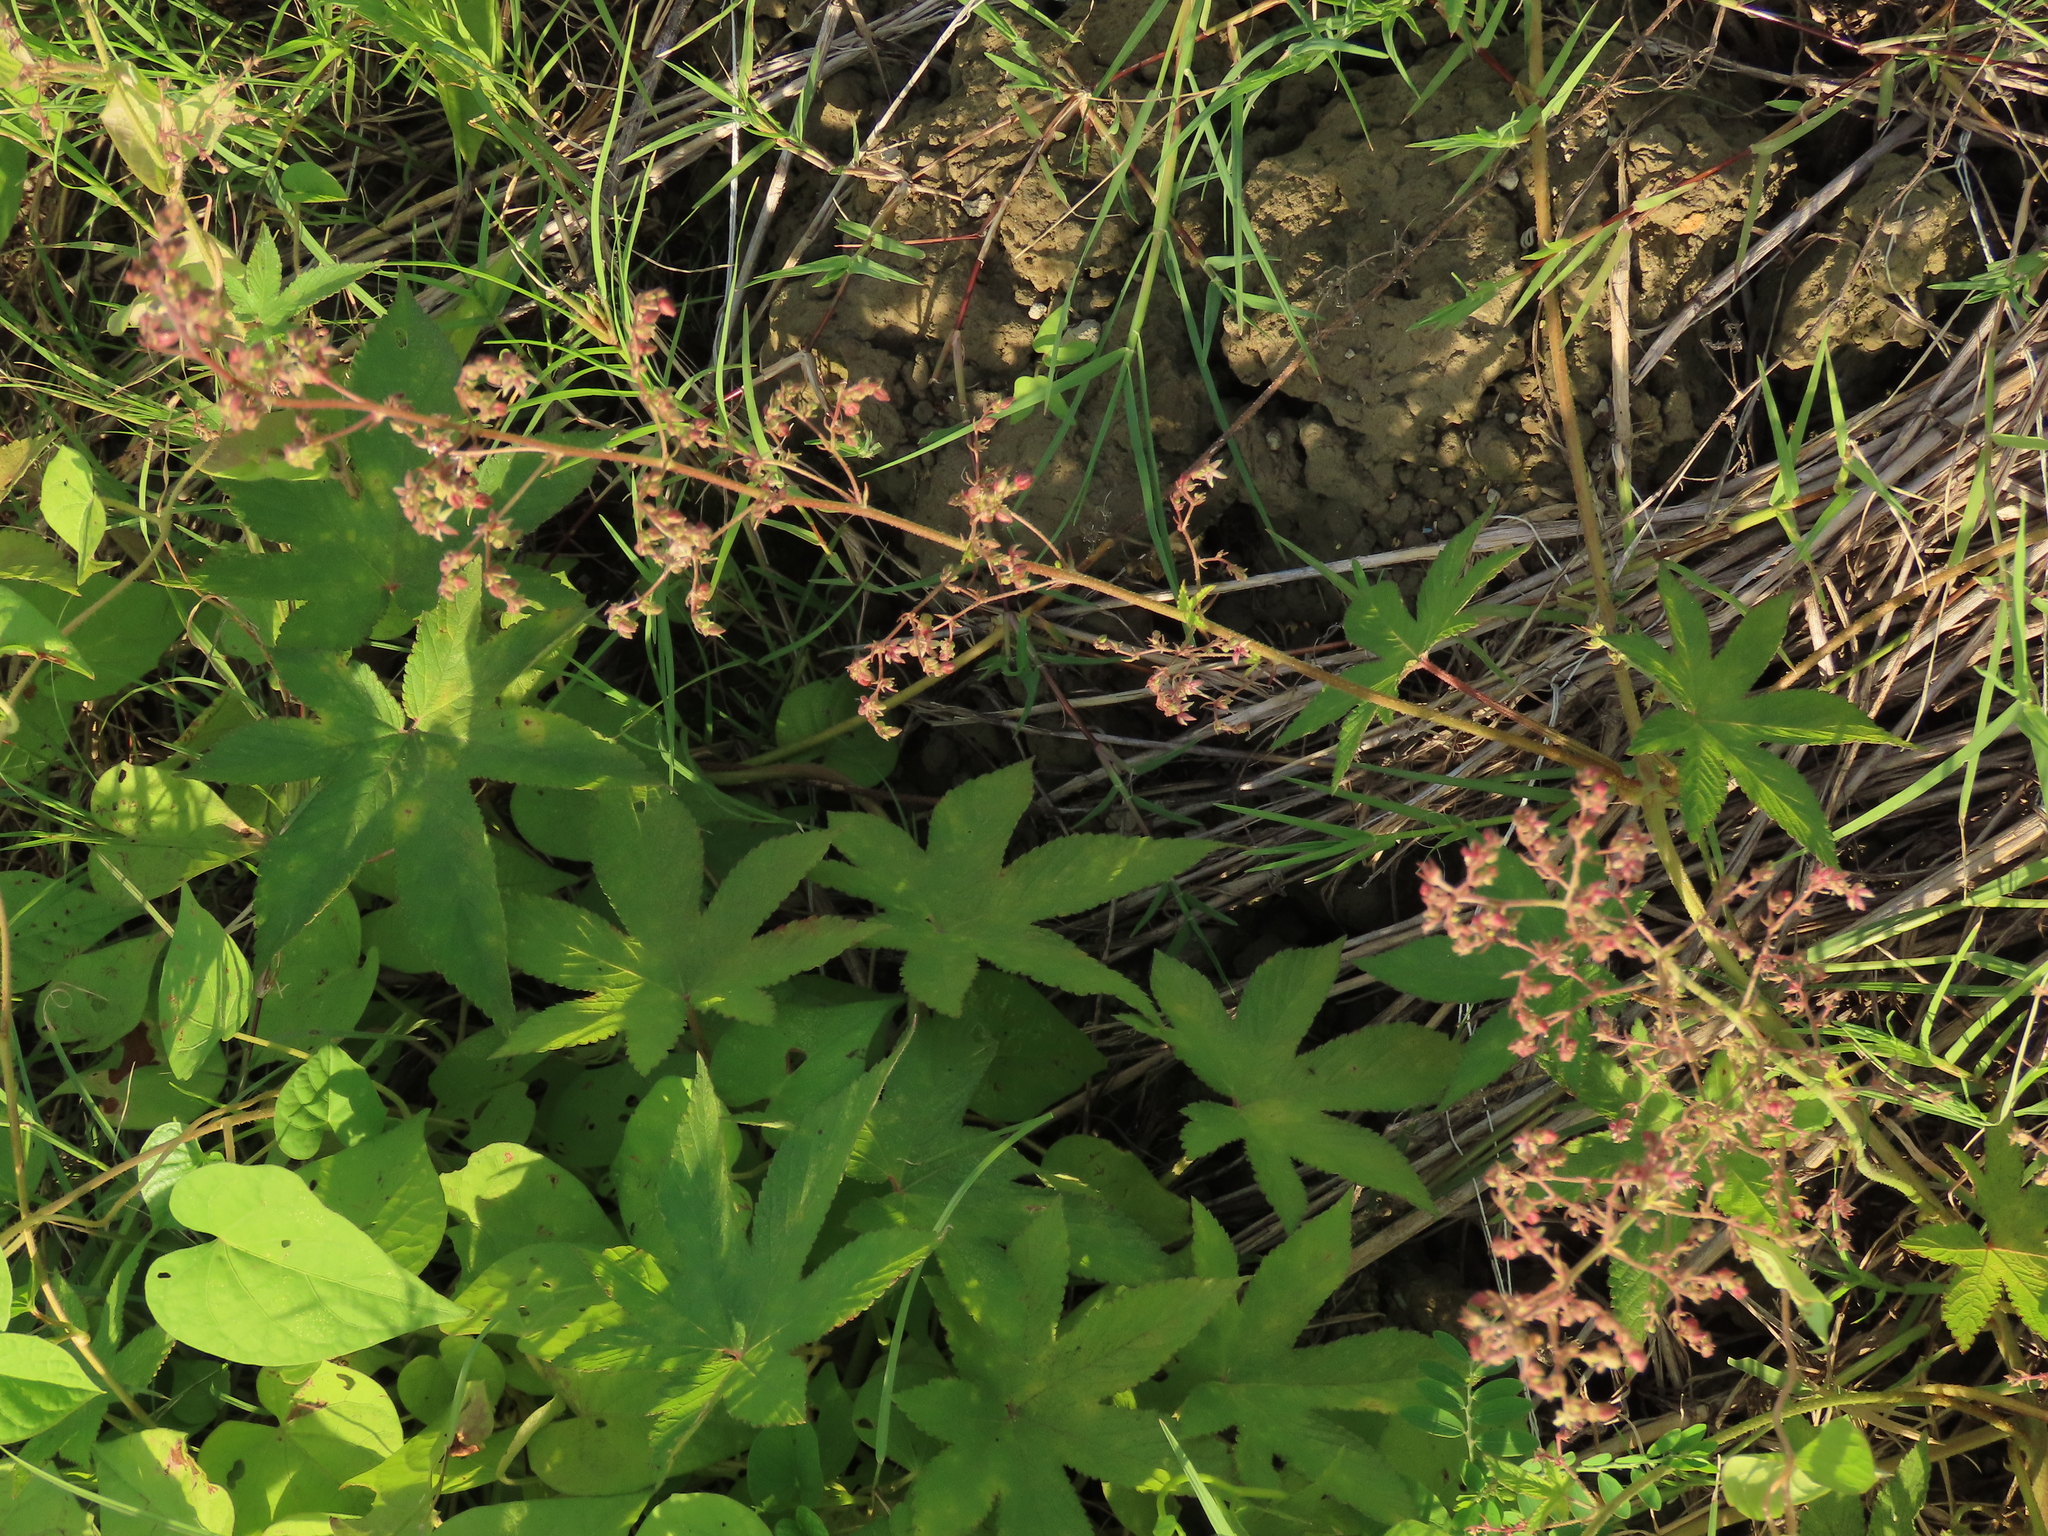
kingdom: Plantae
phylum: Tracheophyta
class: Magnoliopsida
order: Rosales
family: Cannabaceae
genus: Humulus
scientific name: Humulus scandens
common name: Japanese hop
